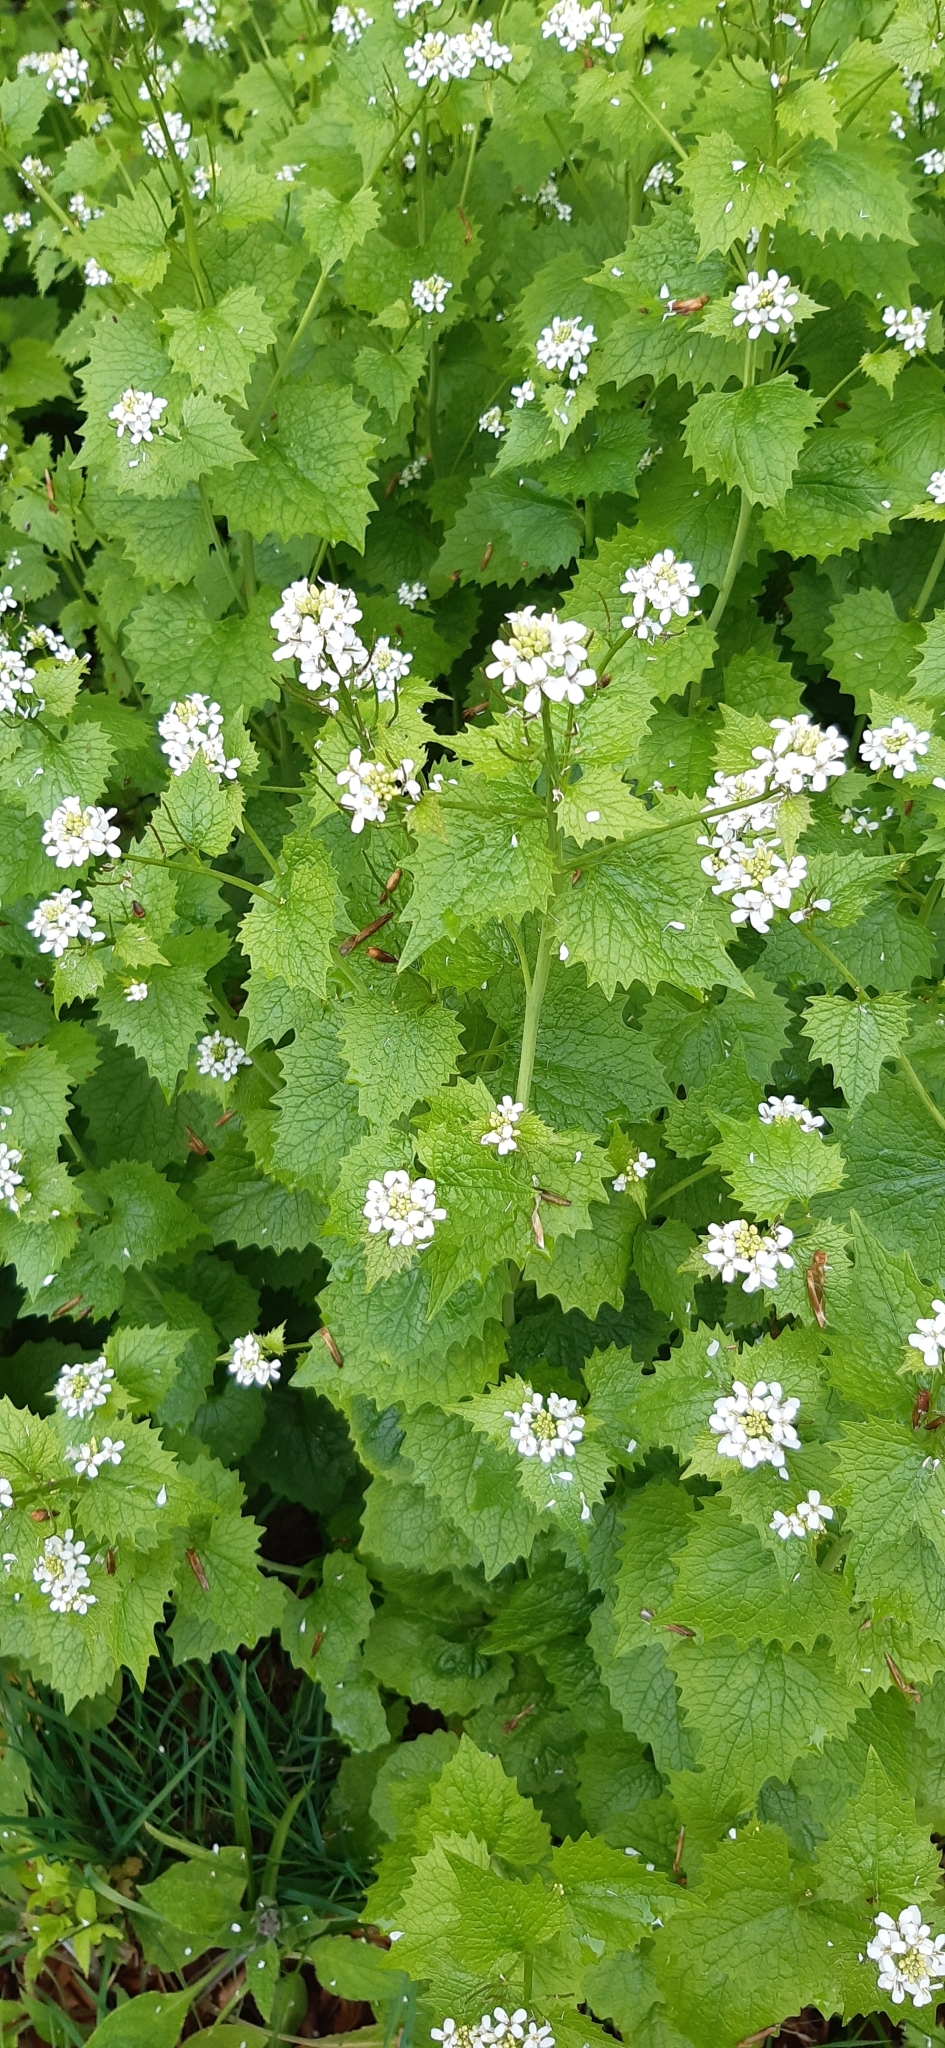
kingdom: Plantae
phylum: Tracheophyta
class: Magnoliopsida
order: Brassicales
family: Brassicaceae
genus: Alliaria
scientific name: Alliaria petiolata
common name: Garlic mustard
